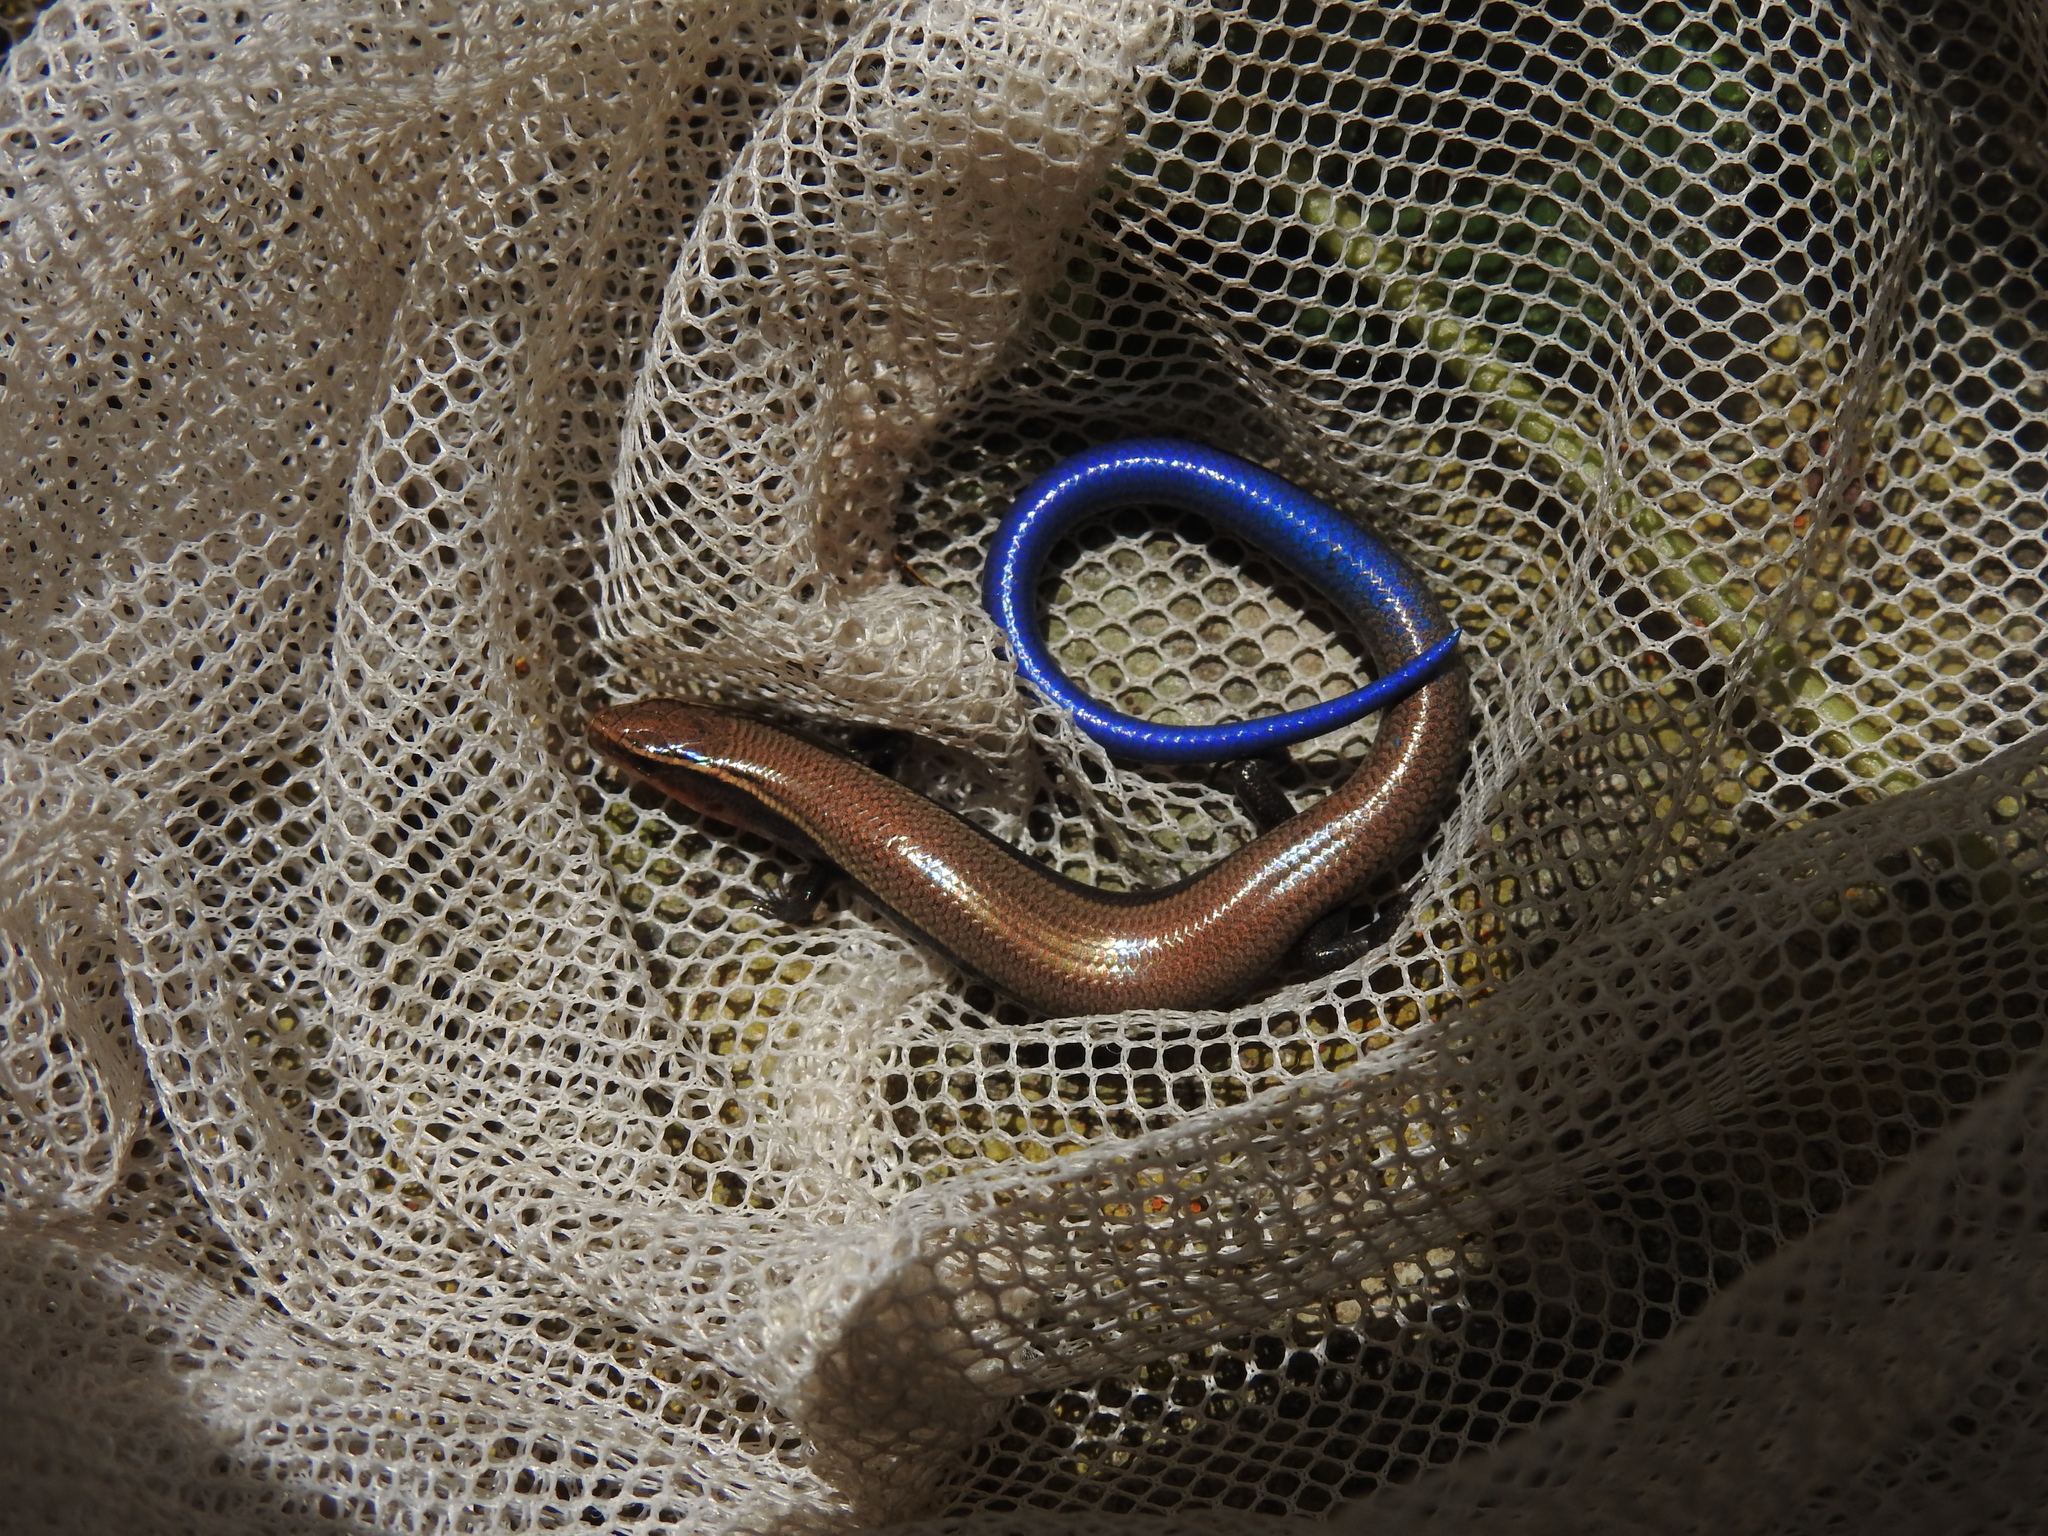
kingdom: Animalia
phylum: Chordata
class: Squamata
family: Scincidae
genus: Plestiodon
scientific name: Plestiodon tetragrammus
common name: Four-lined skink
